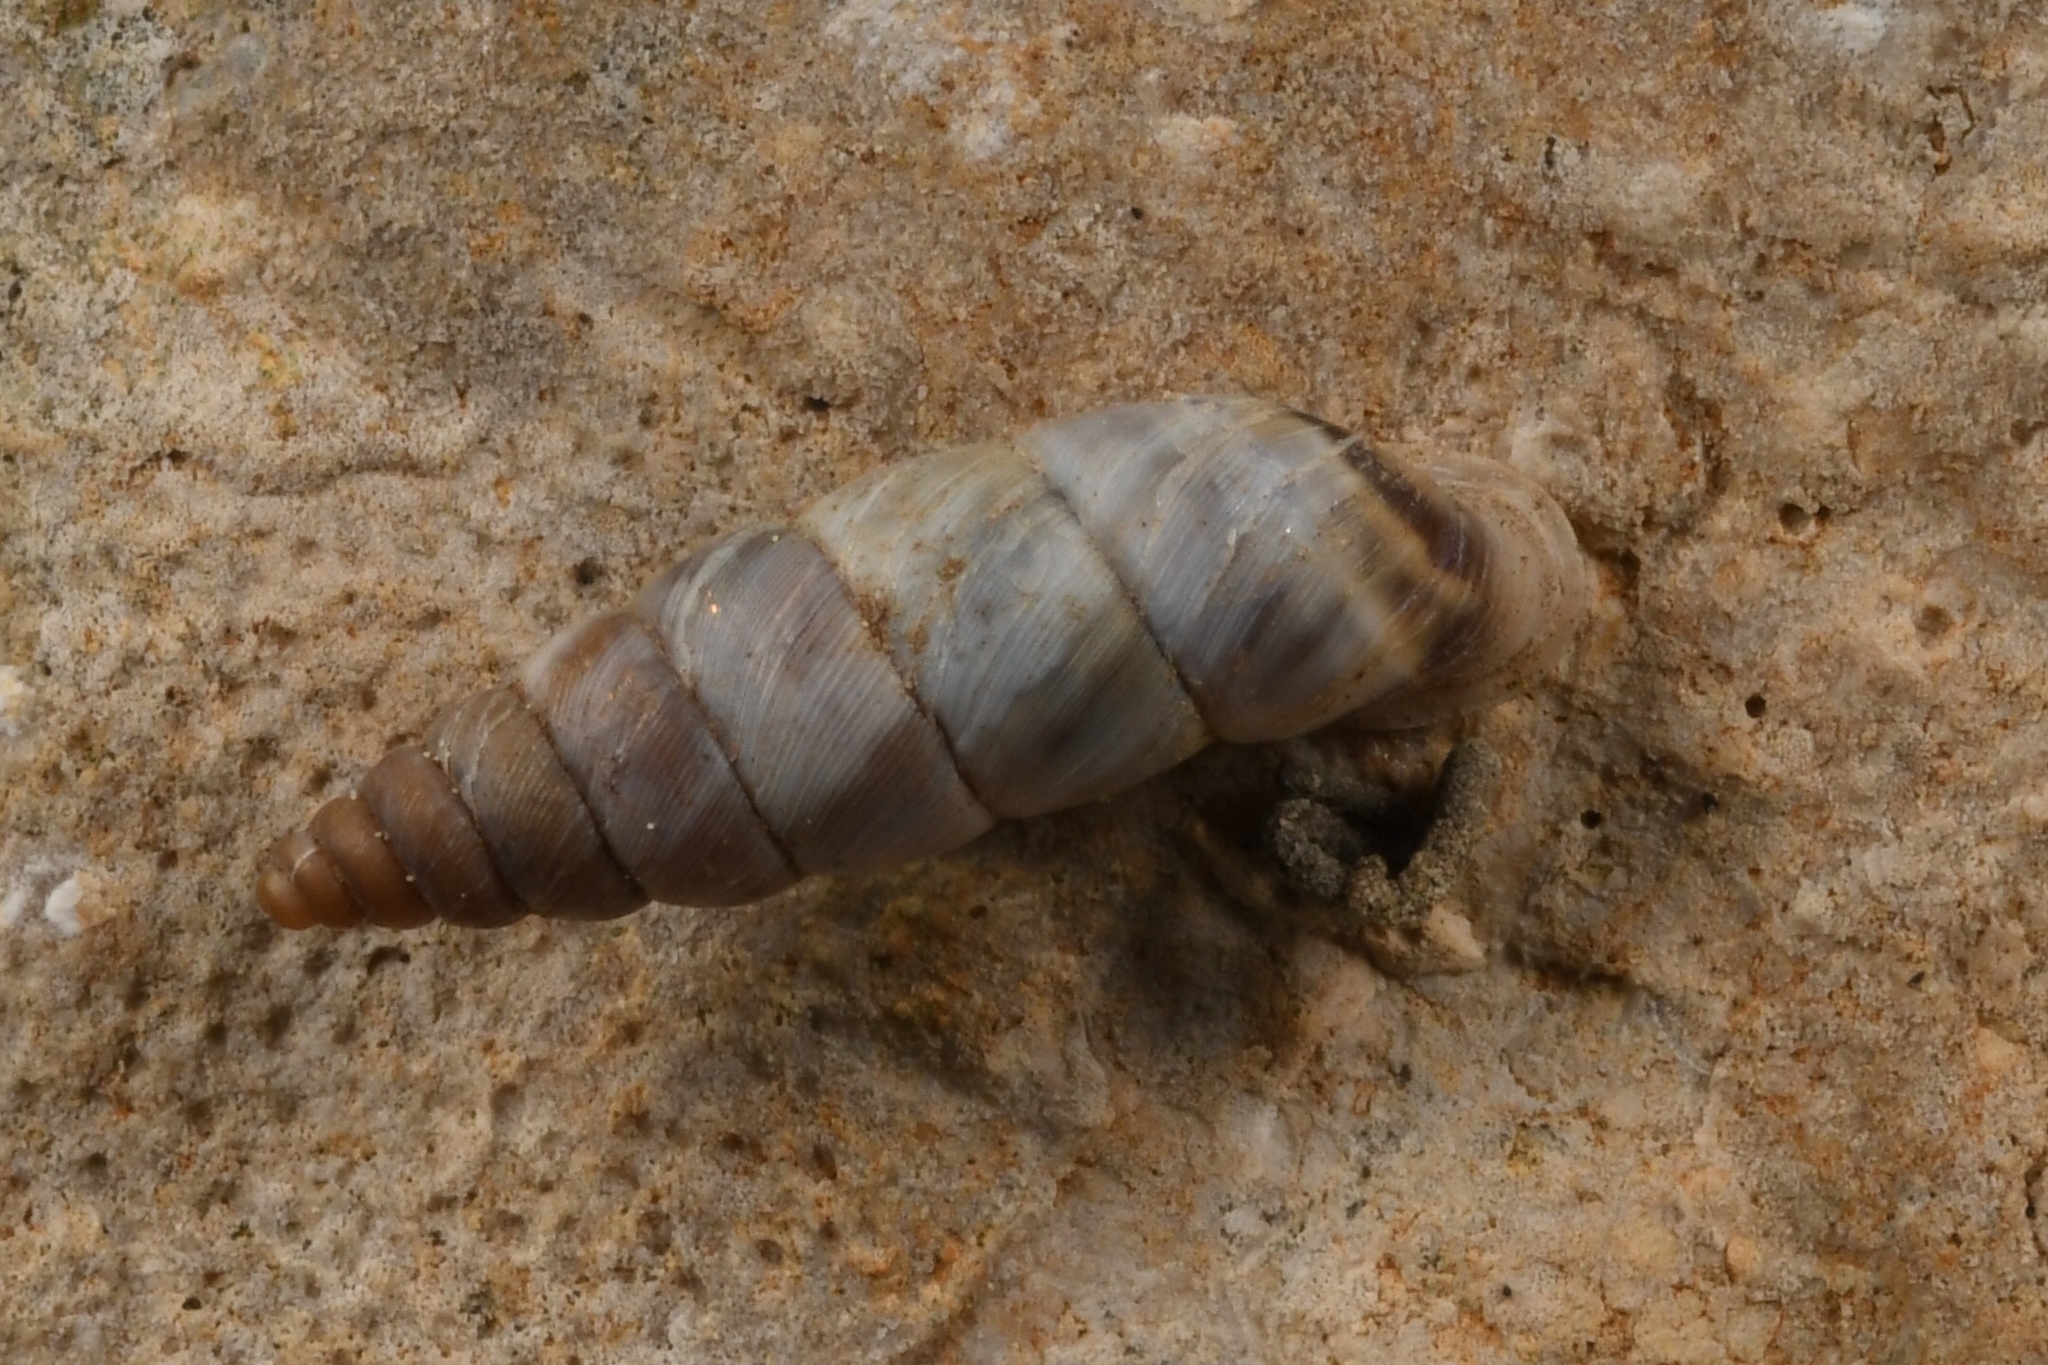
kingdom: Animalia
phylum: Mollusca
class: Gastropoda
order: Stylommatophora
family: Chondrinidae
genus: Solatopupa
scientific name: Solatopupa similis
